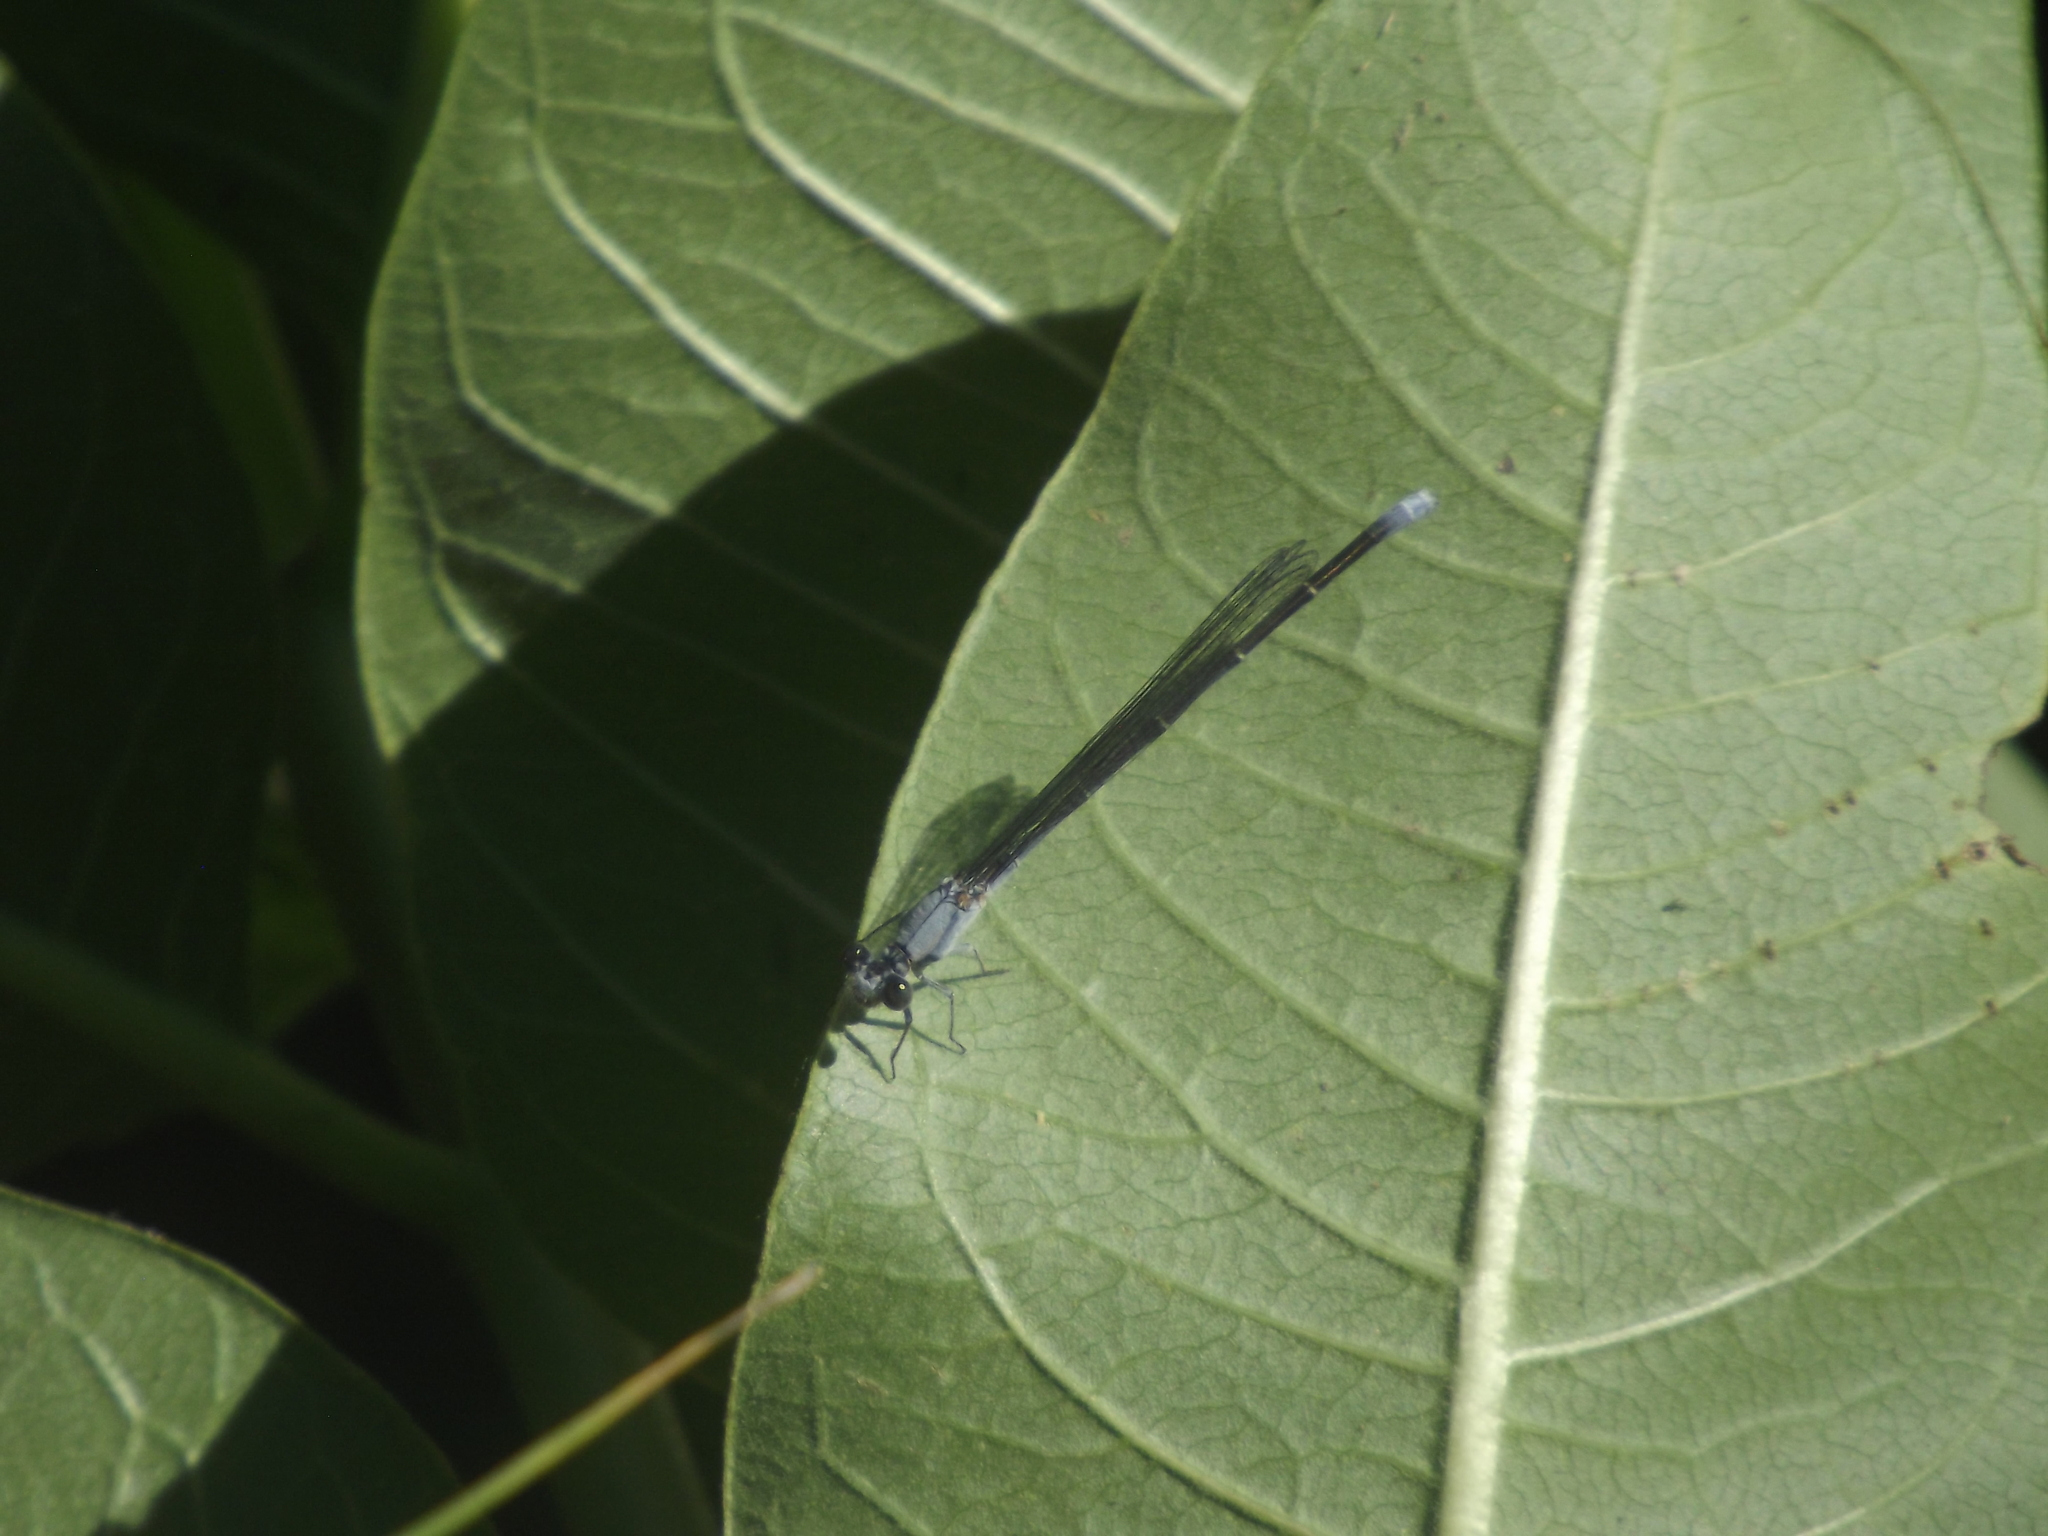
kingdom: Animalia
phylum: Arthropoda
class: Insecta
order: Odonata
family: Coenagrionidae
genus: Argia
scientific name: Argia moesta
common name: Powdered dancer
